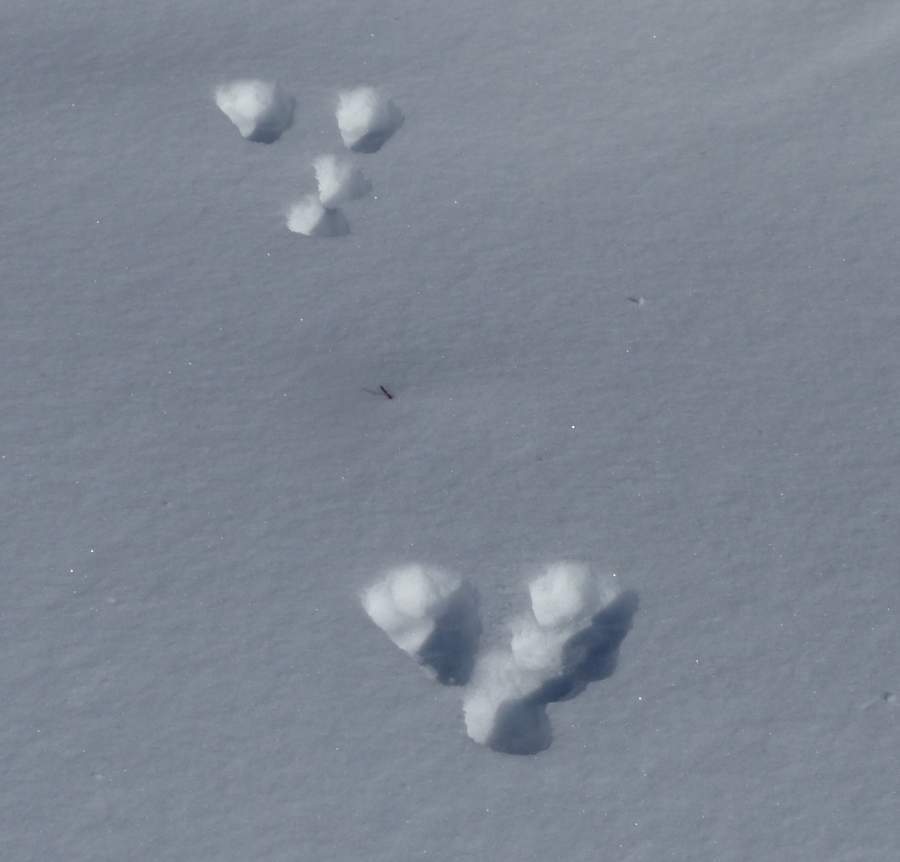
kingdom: Animalia
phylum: Chordata
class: Mammalia
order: Lagomorpha
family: Leporidae
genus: Lepus
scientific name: Lepus americanus
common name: Snowshoe hare
